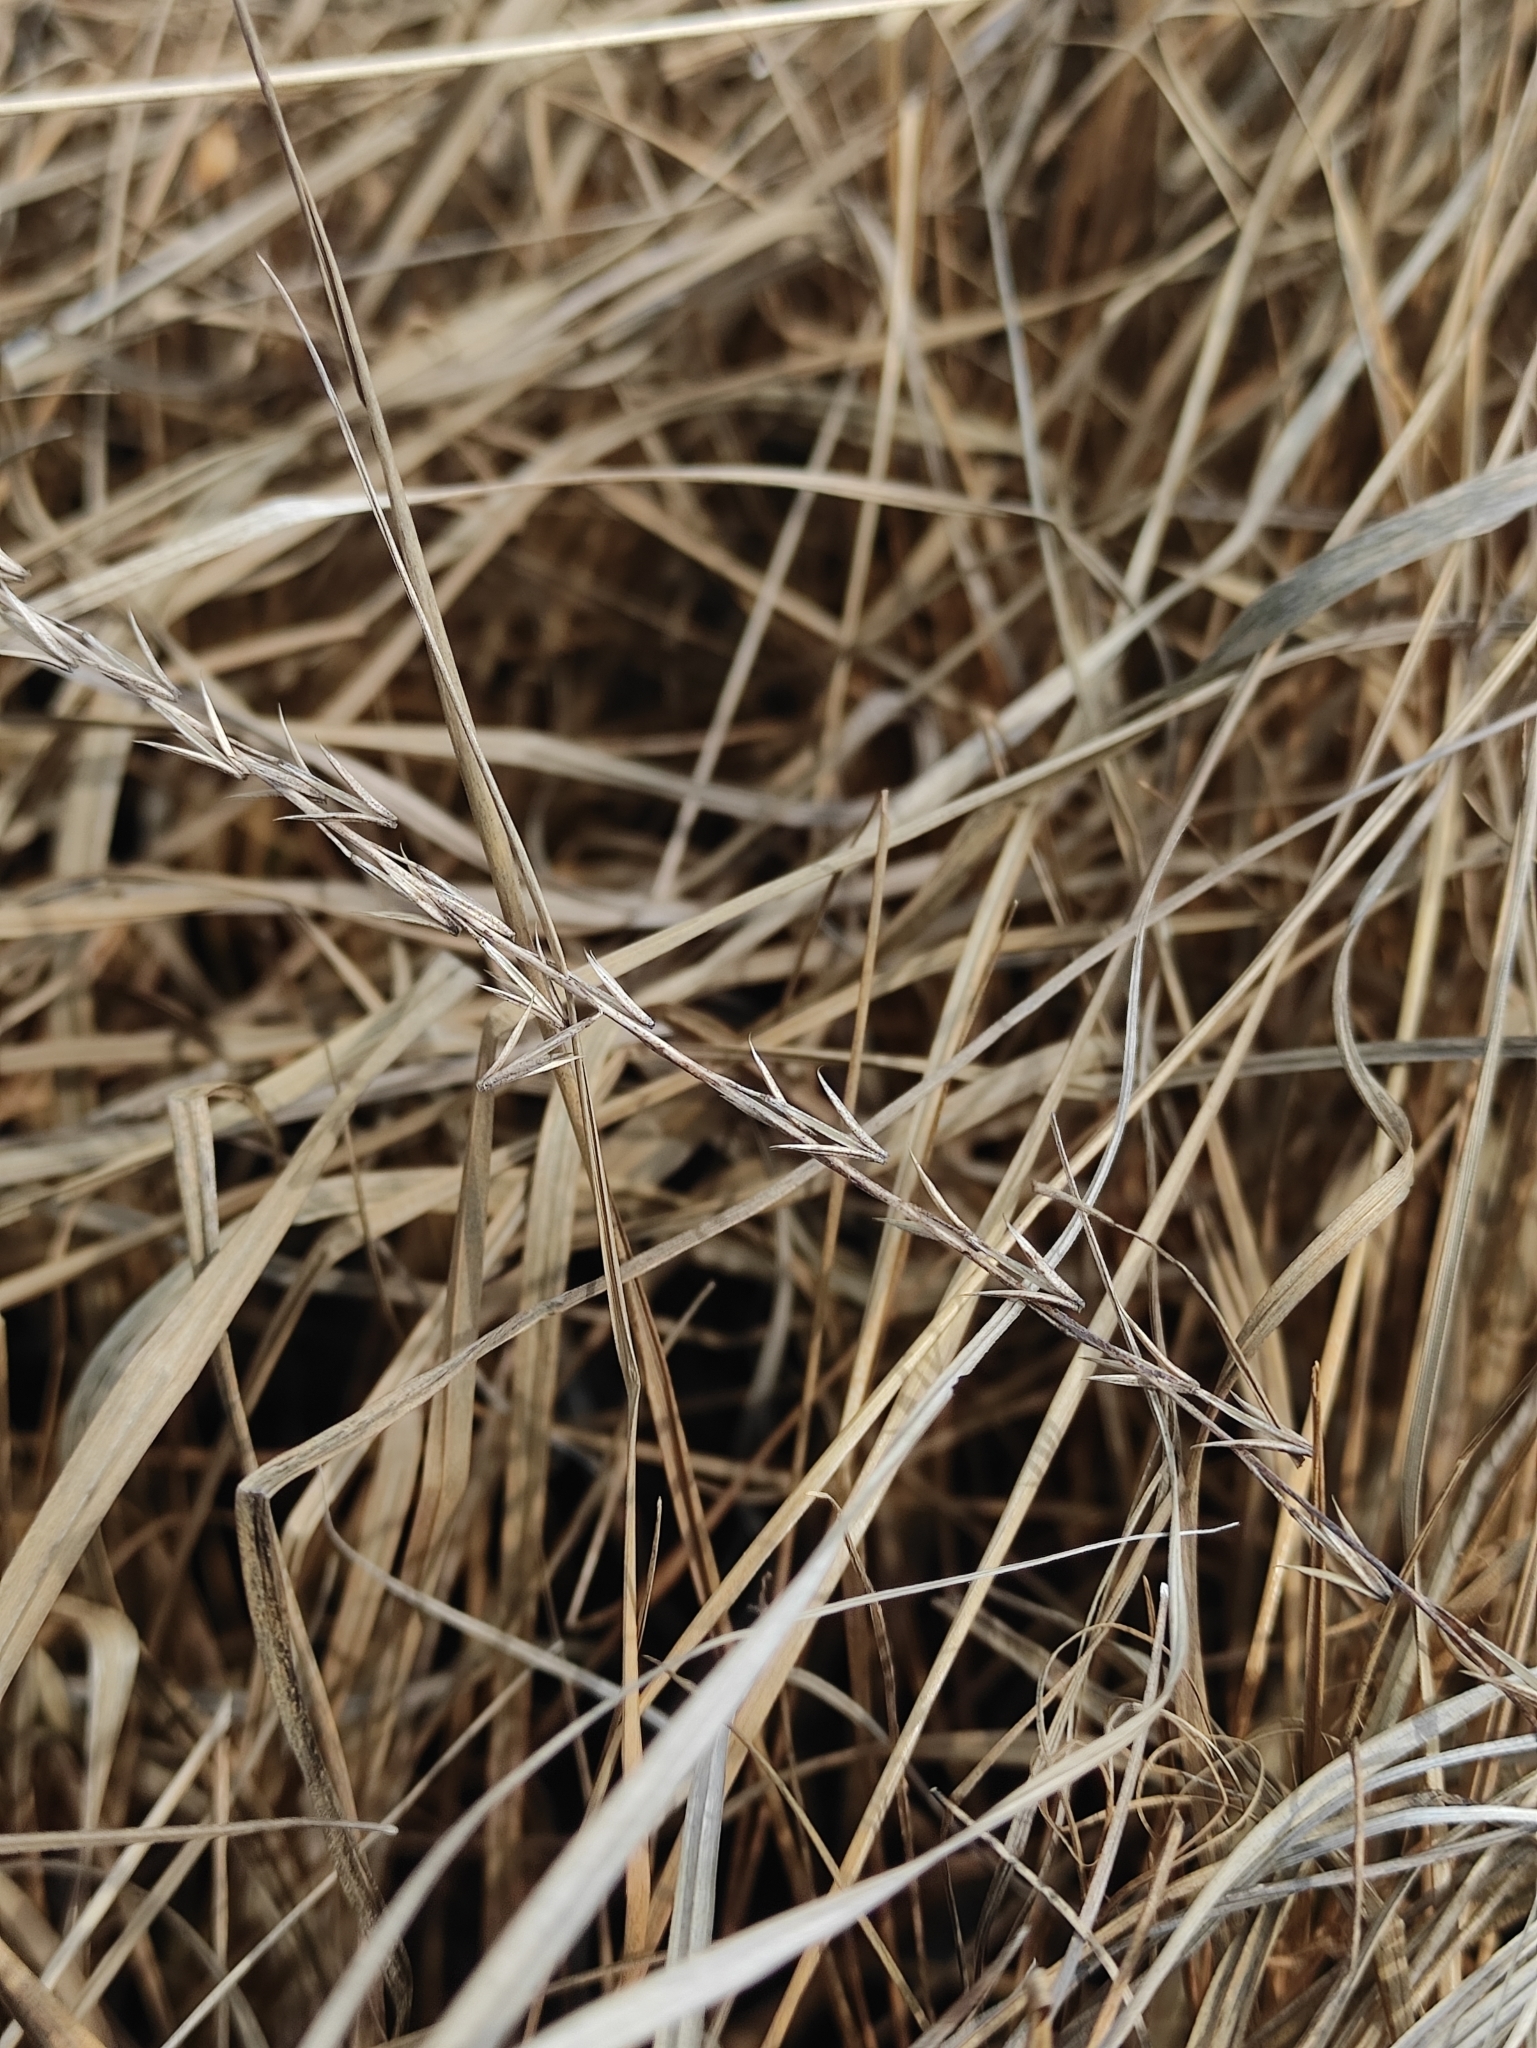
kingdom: Plantae
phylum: Tracheophyta
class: Liliopsida
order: Alismatales
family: Juncaginaceae
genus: Triglochin
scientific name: Triglochin palustris
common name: Marsh arrowgrass
